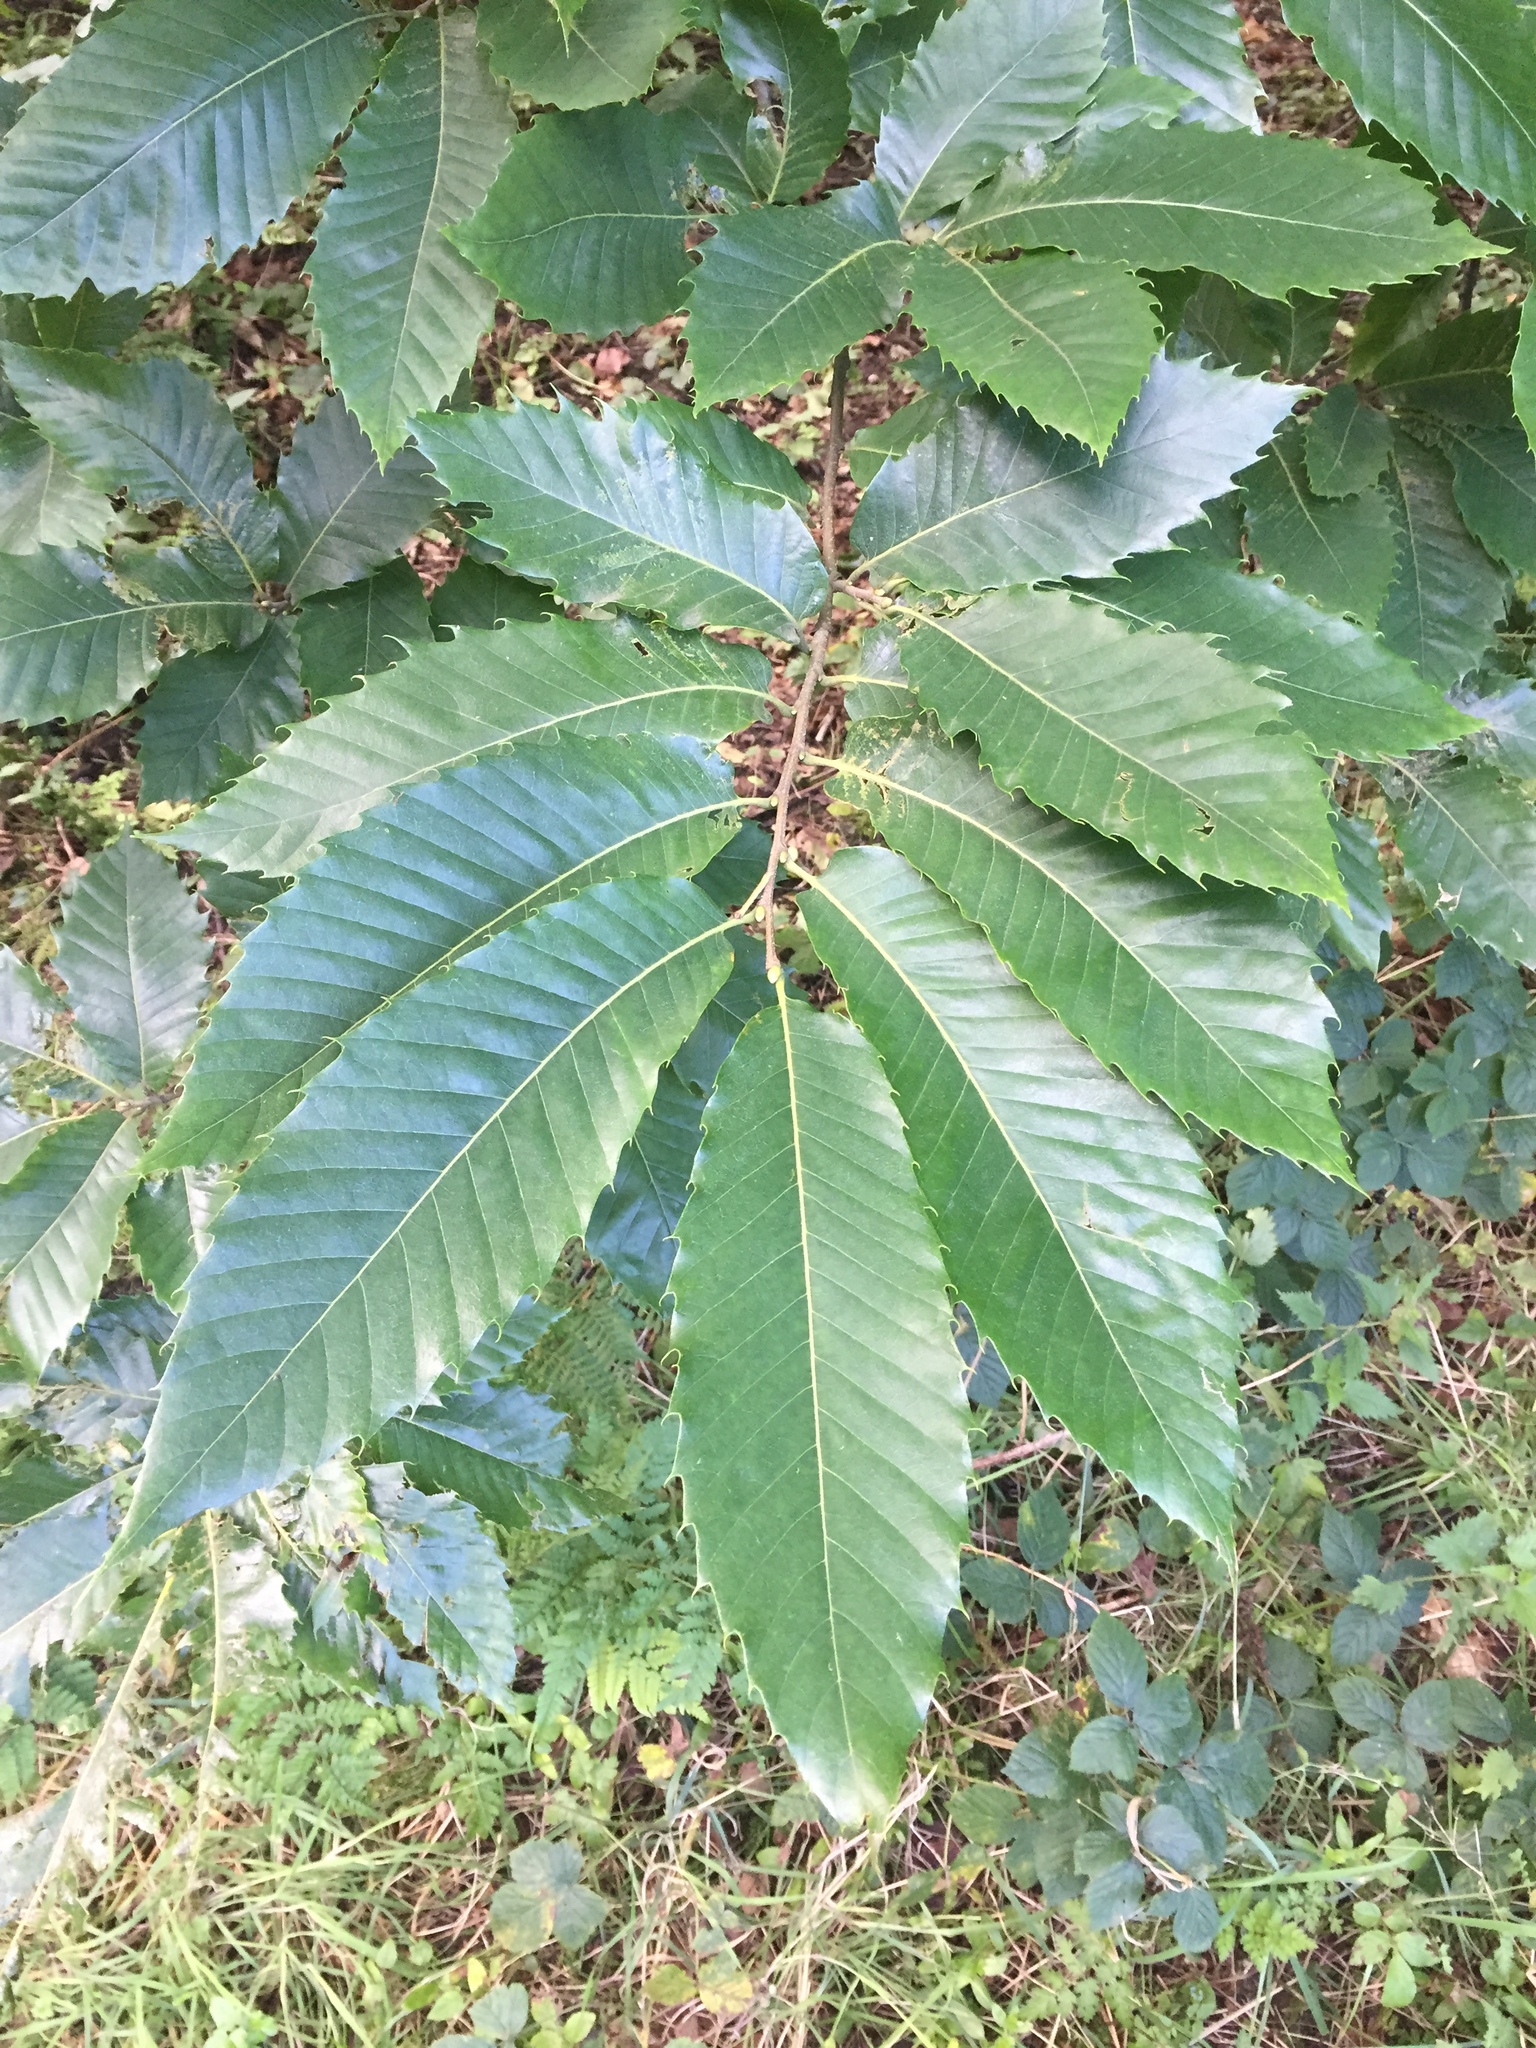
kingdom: Plantae
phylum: Tracheophyta
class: Magnoliopsida
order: Fagales
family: Fagaceae
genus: Castanea
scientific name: Castanea sativa
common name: Sweet chestnut
